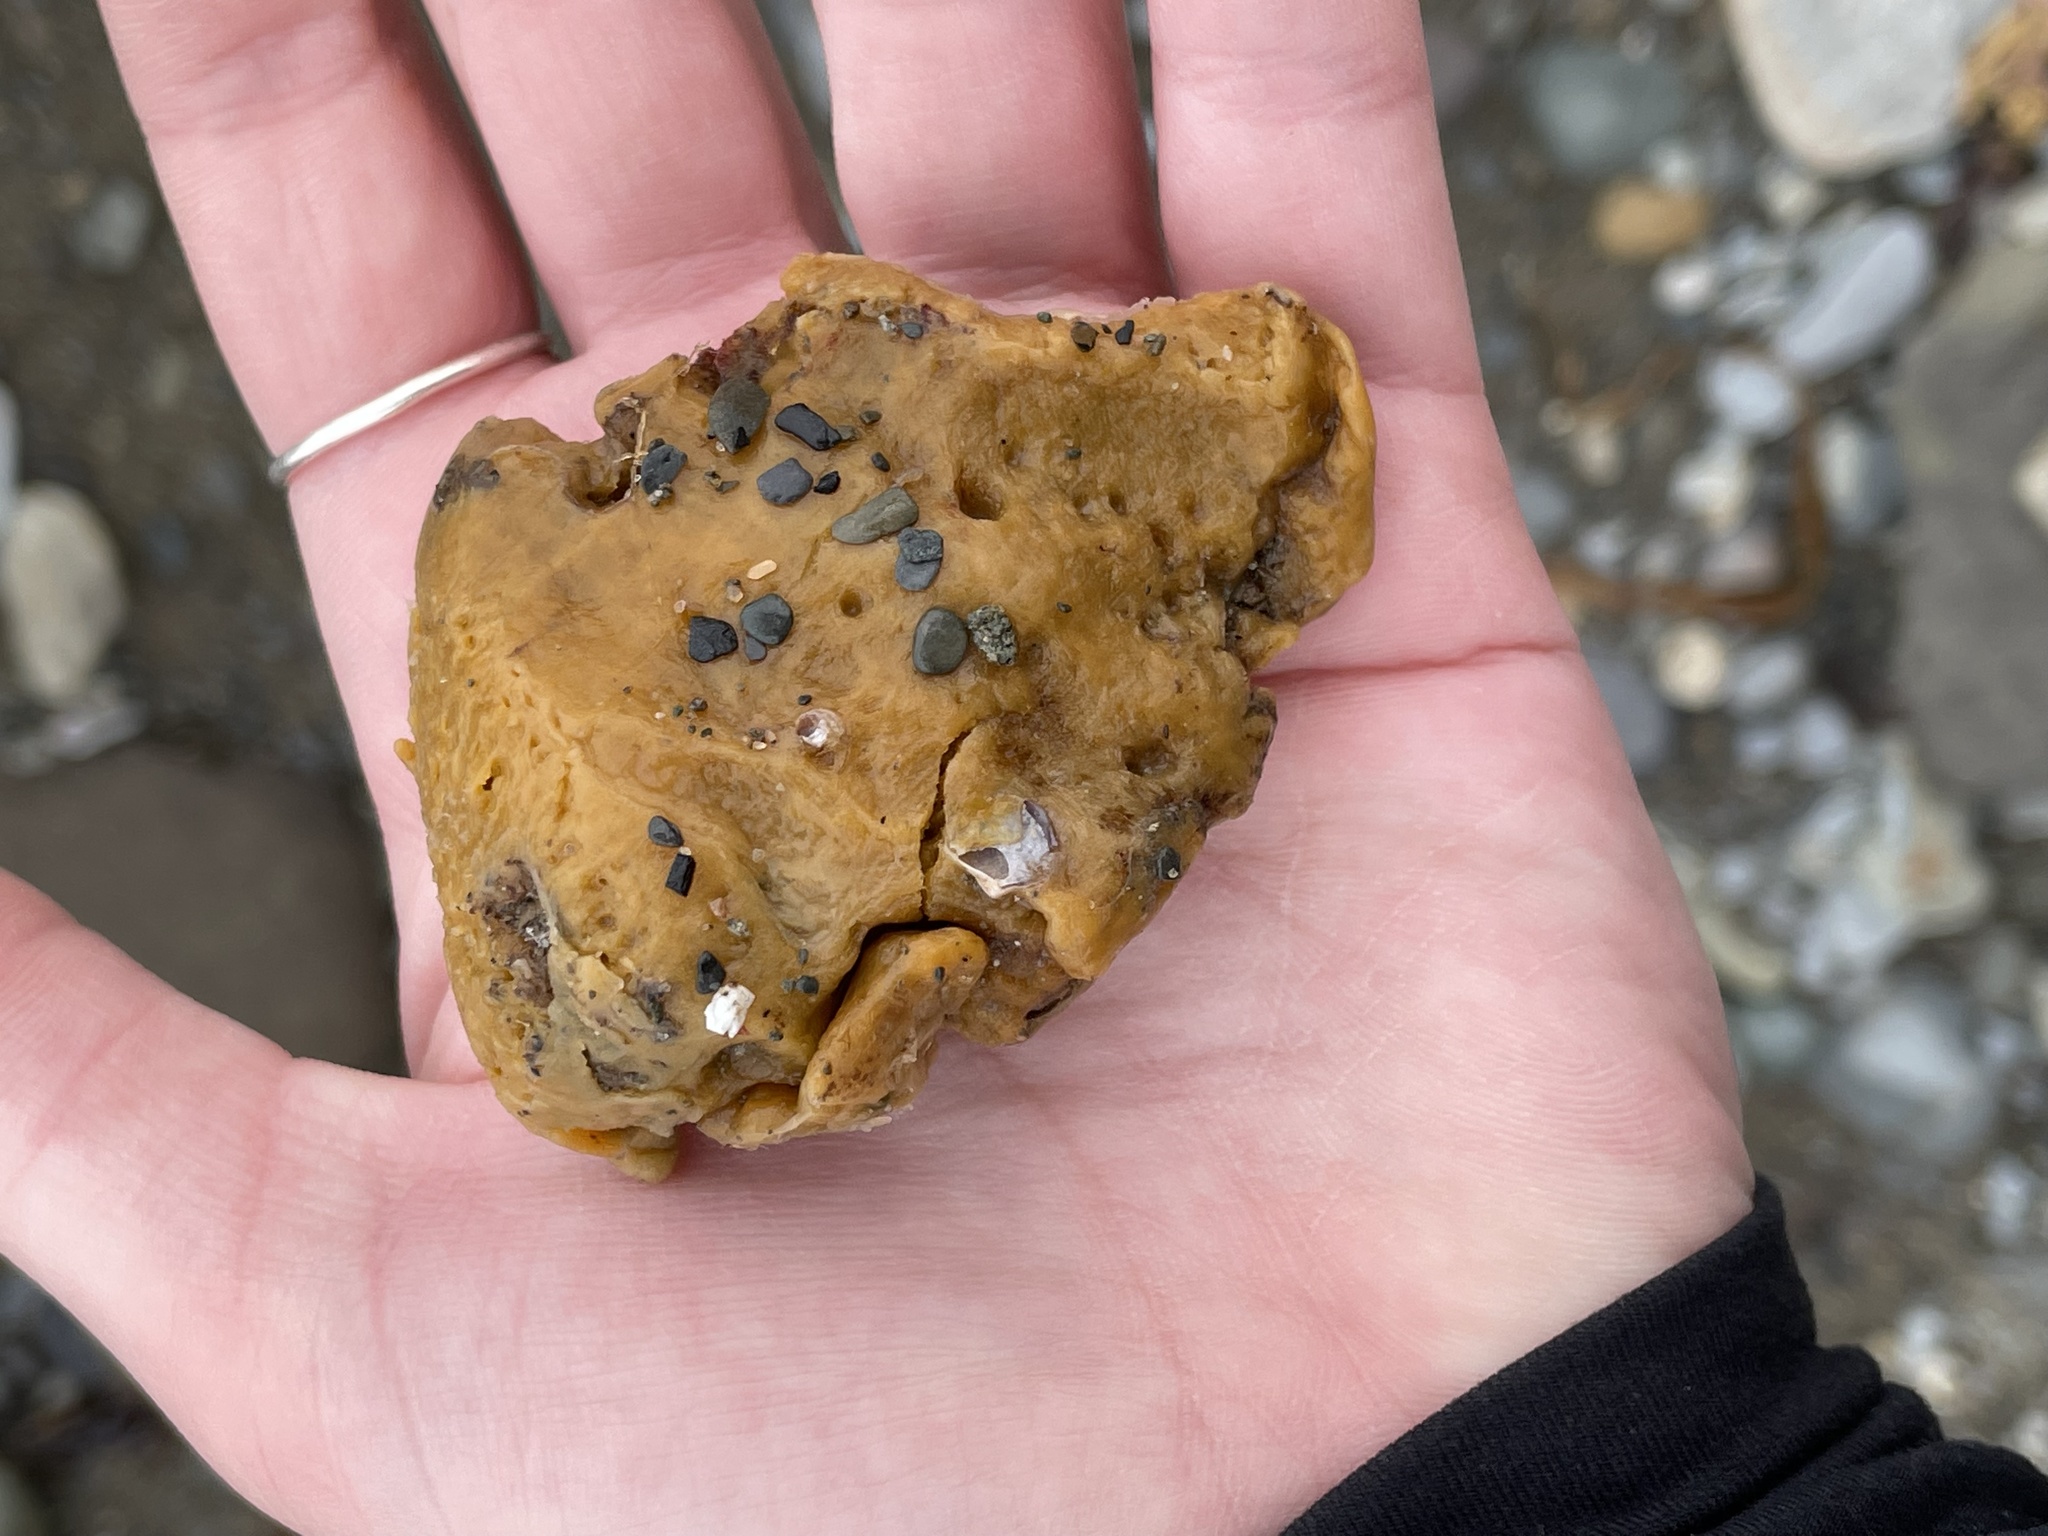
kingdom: Animalia
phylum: Porifera
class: Demospongiae
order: Suberitida
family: Halichondriidae
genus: Halichondria
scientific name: Halichondria panicea
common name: Breadcrumb sponge
